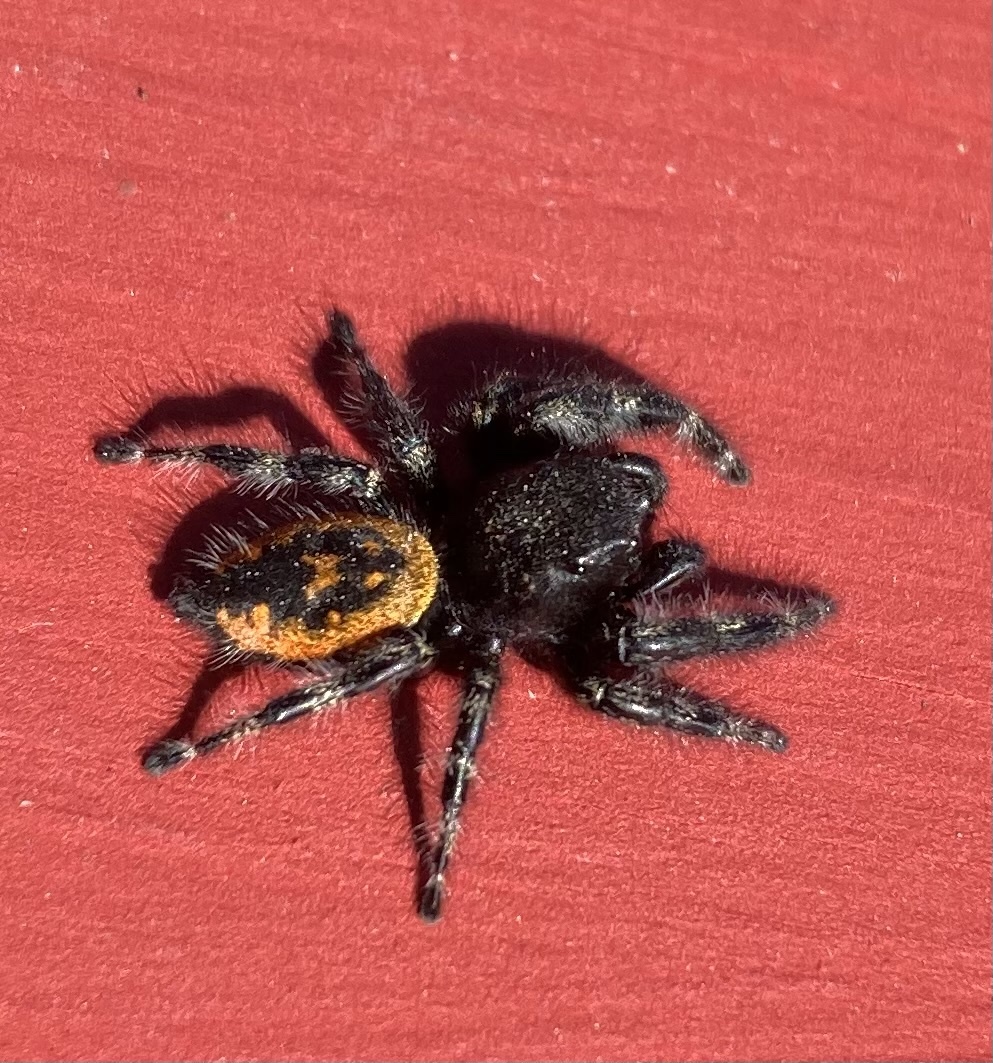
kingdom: Animalia
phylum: Arthropoda
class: Arachnida
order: Araneae
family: Salticidae
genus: Phidippus
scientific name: Phidippus borealis
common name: Boreal tufted jumping spider
